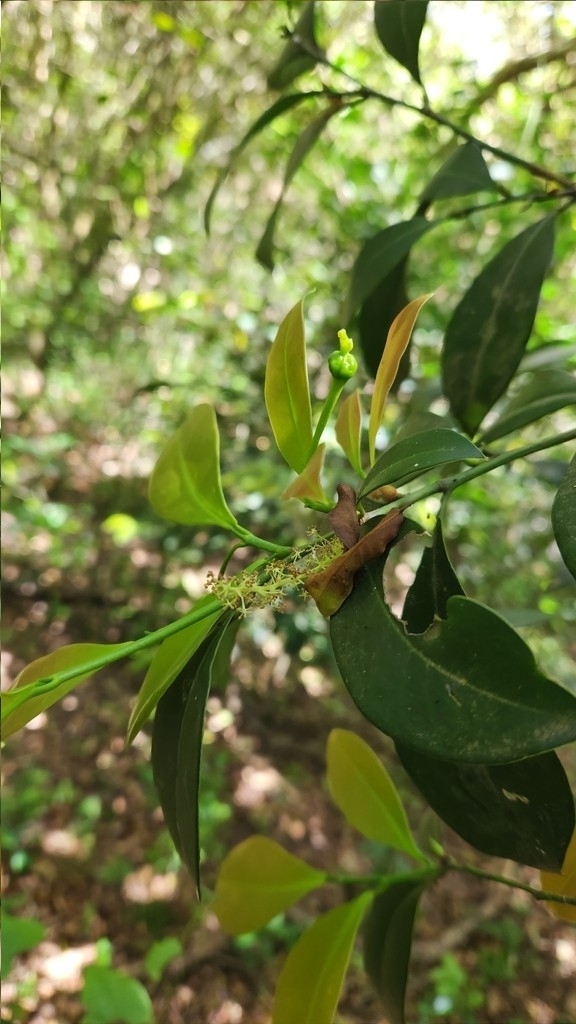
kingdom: Plantae
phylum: Tracheophyta
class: Magnoliopsida
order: Malpighiales
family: Euphorbiaceae
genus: Actinostemon
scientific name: Actinostemon concolor
